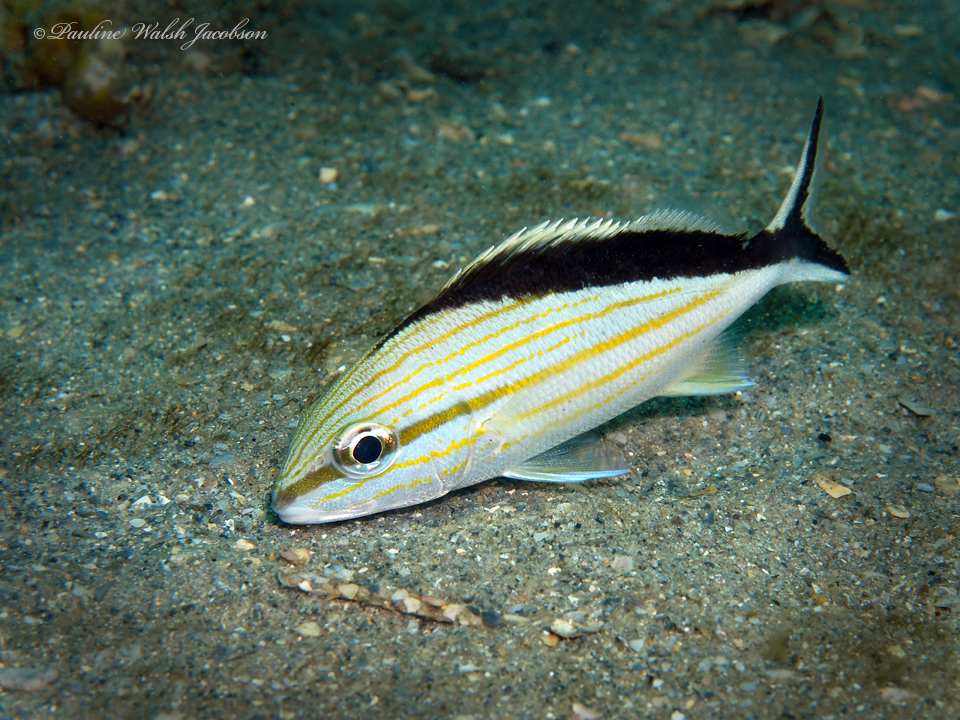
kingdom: Animalia
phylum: Chordata
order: Perciformes
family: Haemulidae
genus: Haemulon
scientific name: Haemulon melanurum
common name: Cottonwick
